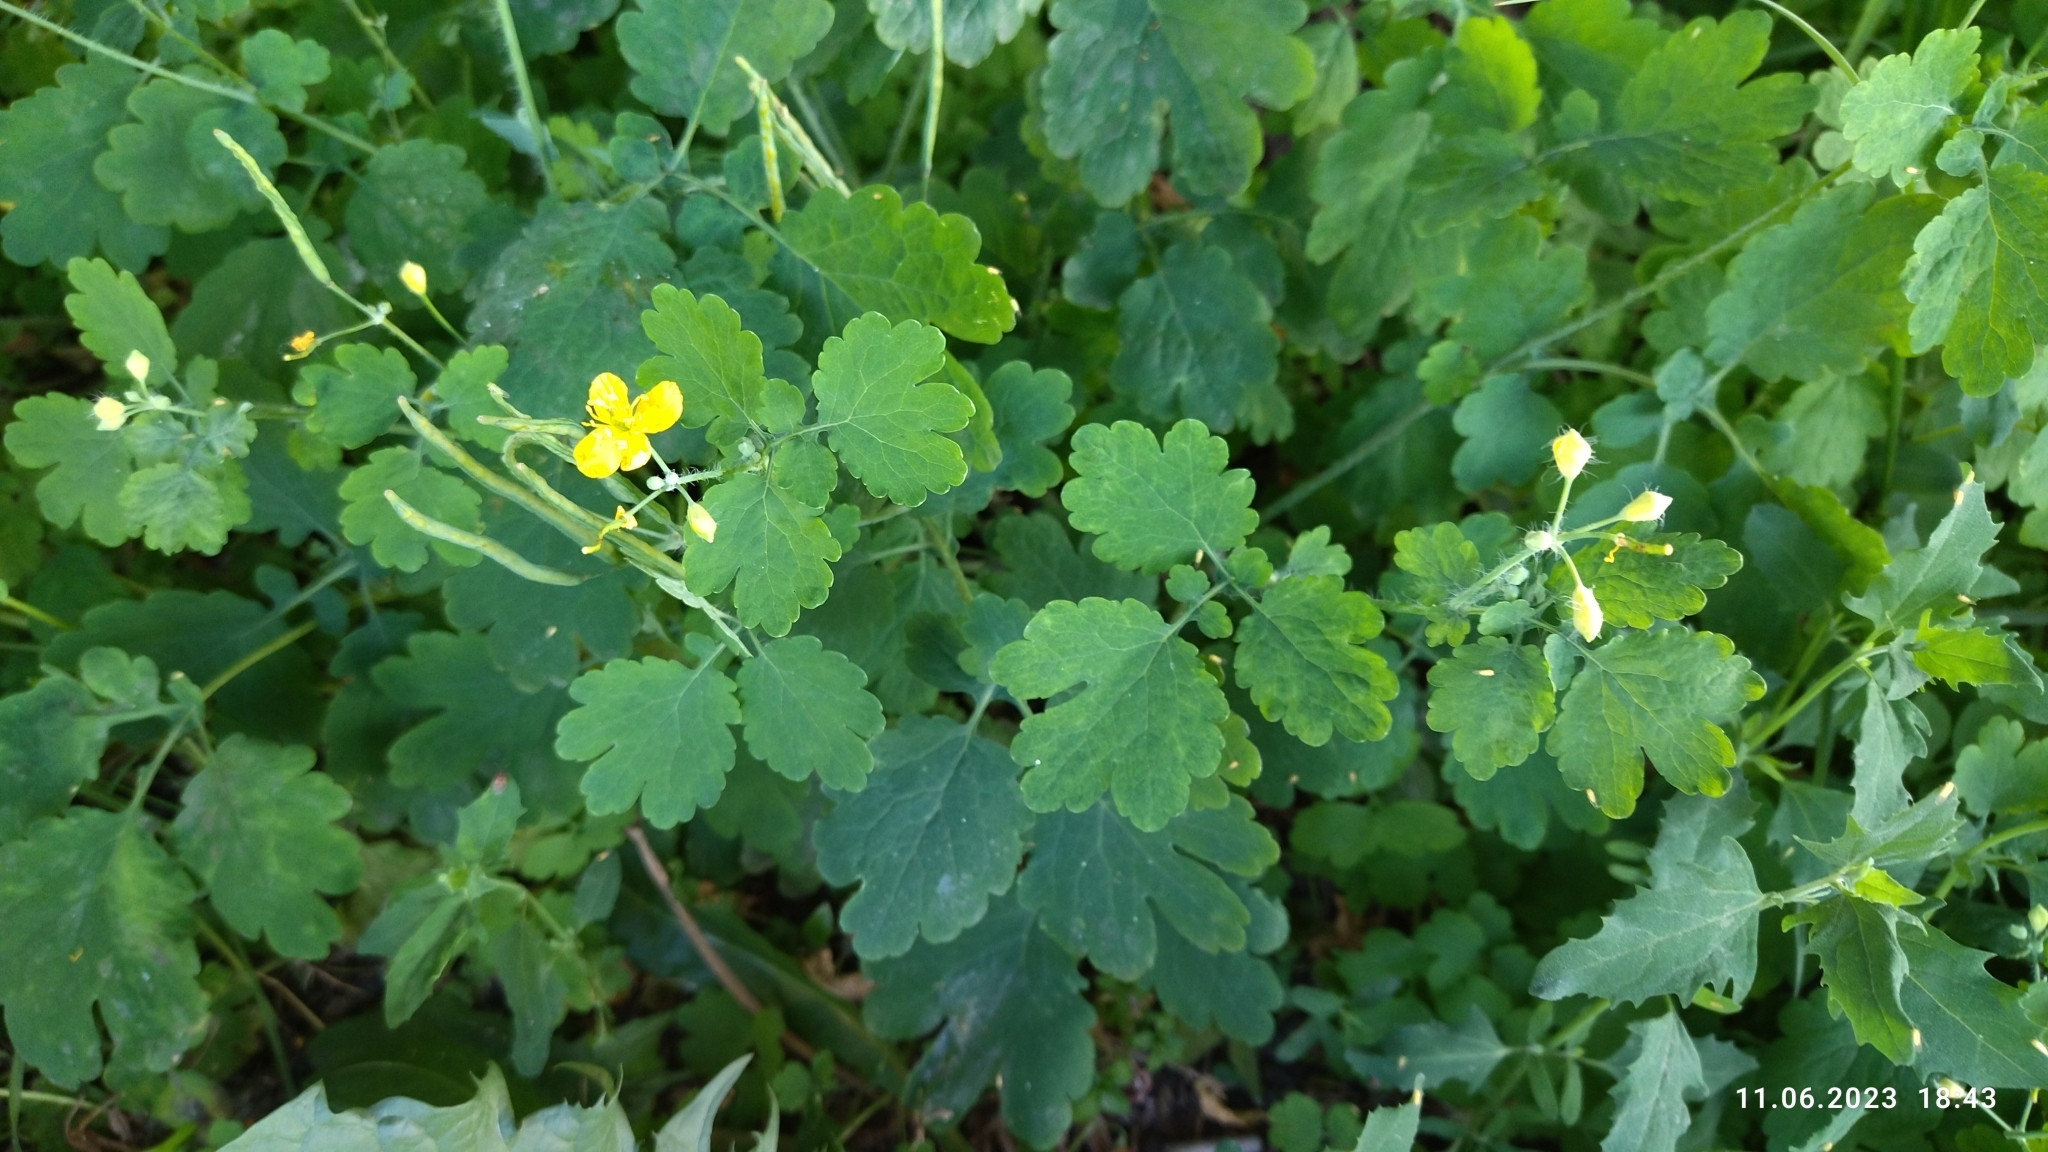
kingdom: Plantae
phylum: Tracheophyta
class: Magnoliopsida
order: Ranunculales
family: Papaveraceae
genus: Chelidonium
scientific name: Chelidonium majus
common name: Greater celandine
